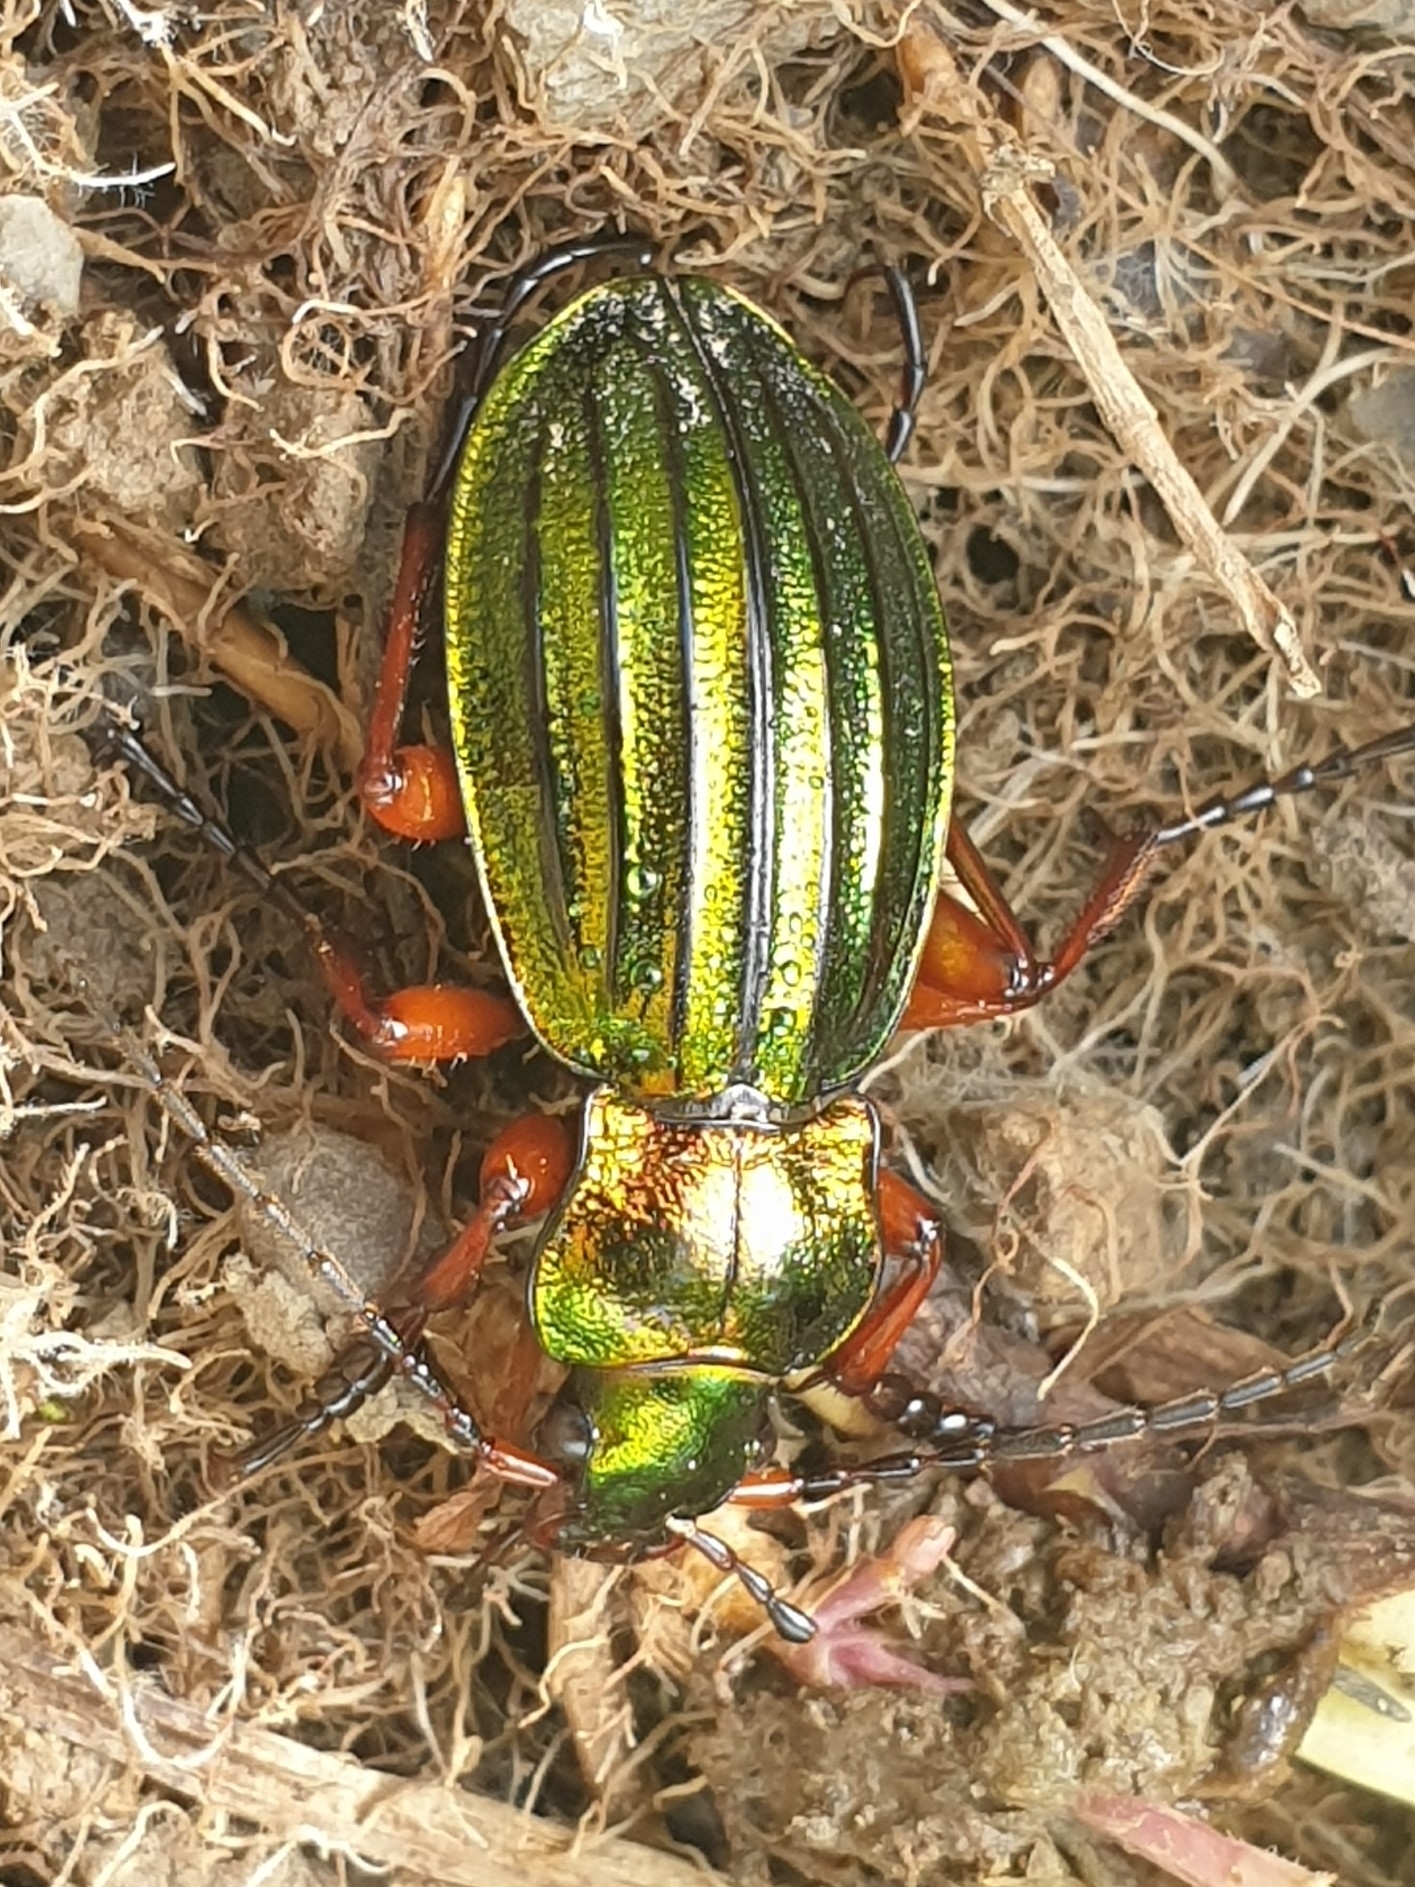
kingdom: Animalia
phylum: Arthropoda
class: Insecta
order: Coleoptera
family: Carabidae
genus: Carabus
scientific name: Carabus auronitens
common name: Carabus auronitens
